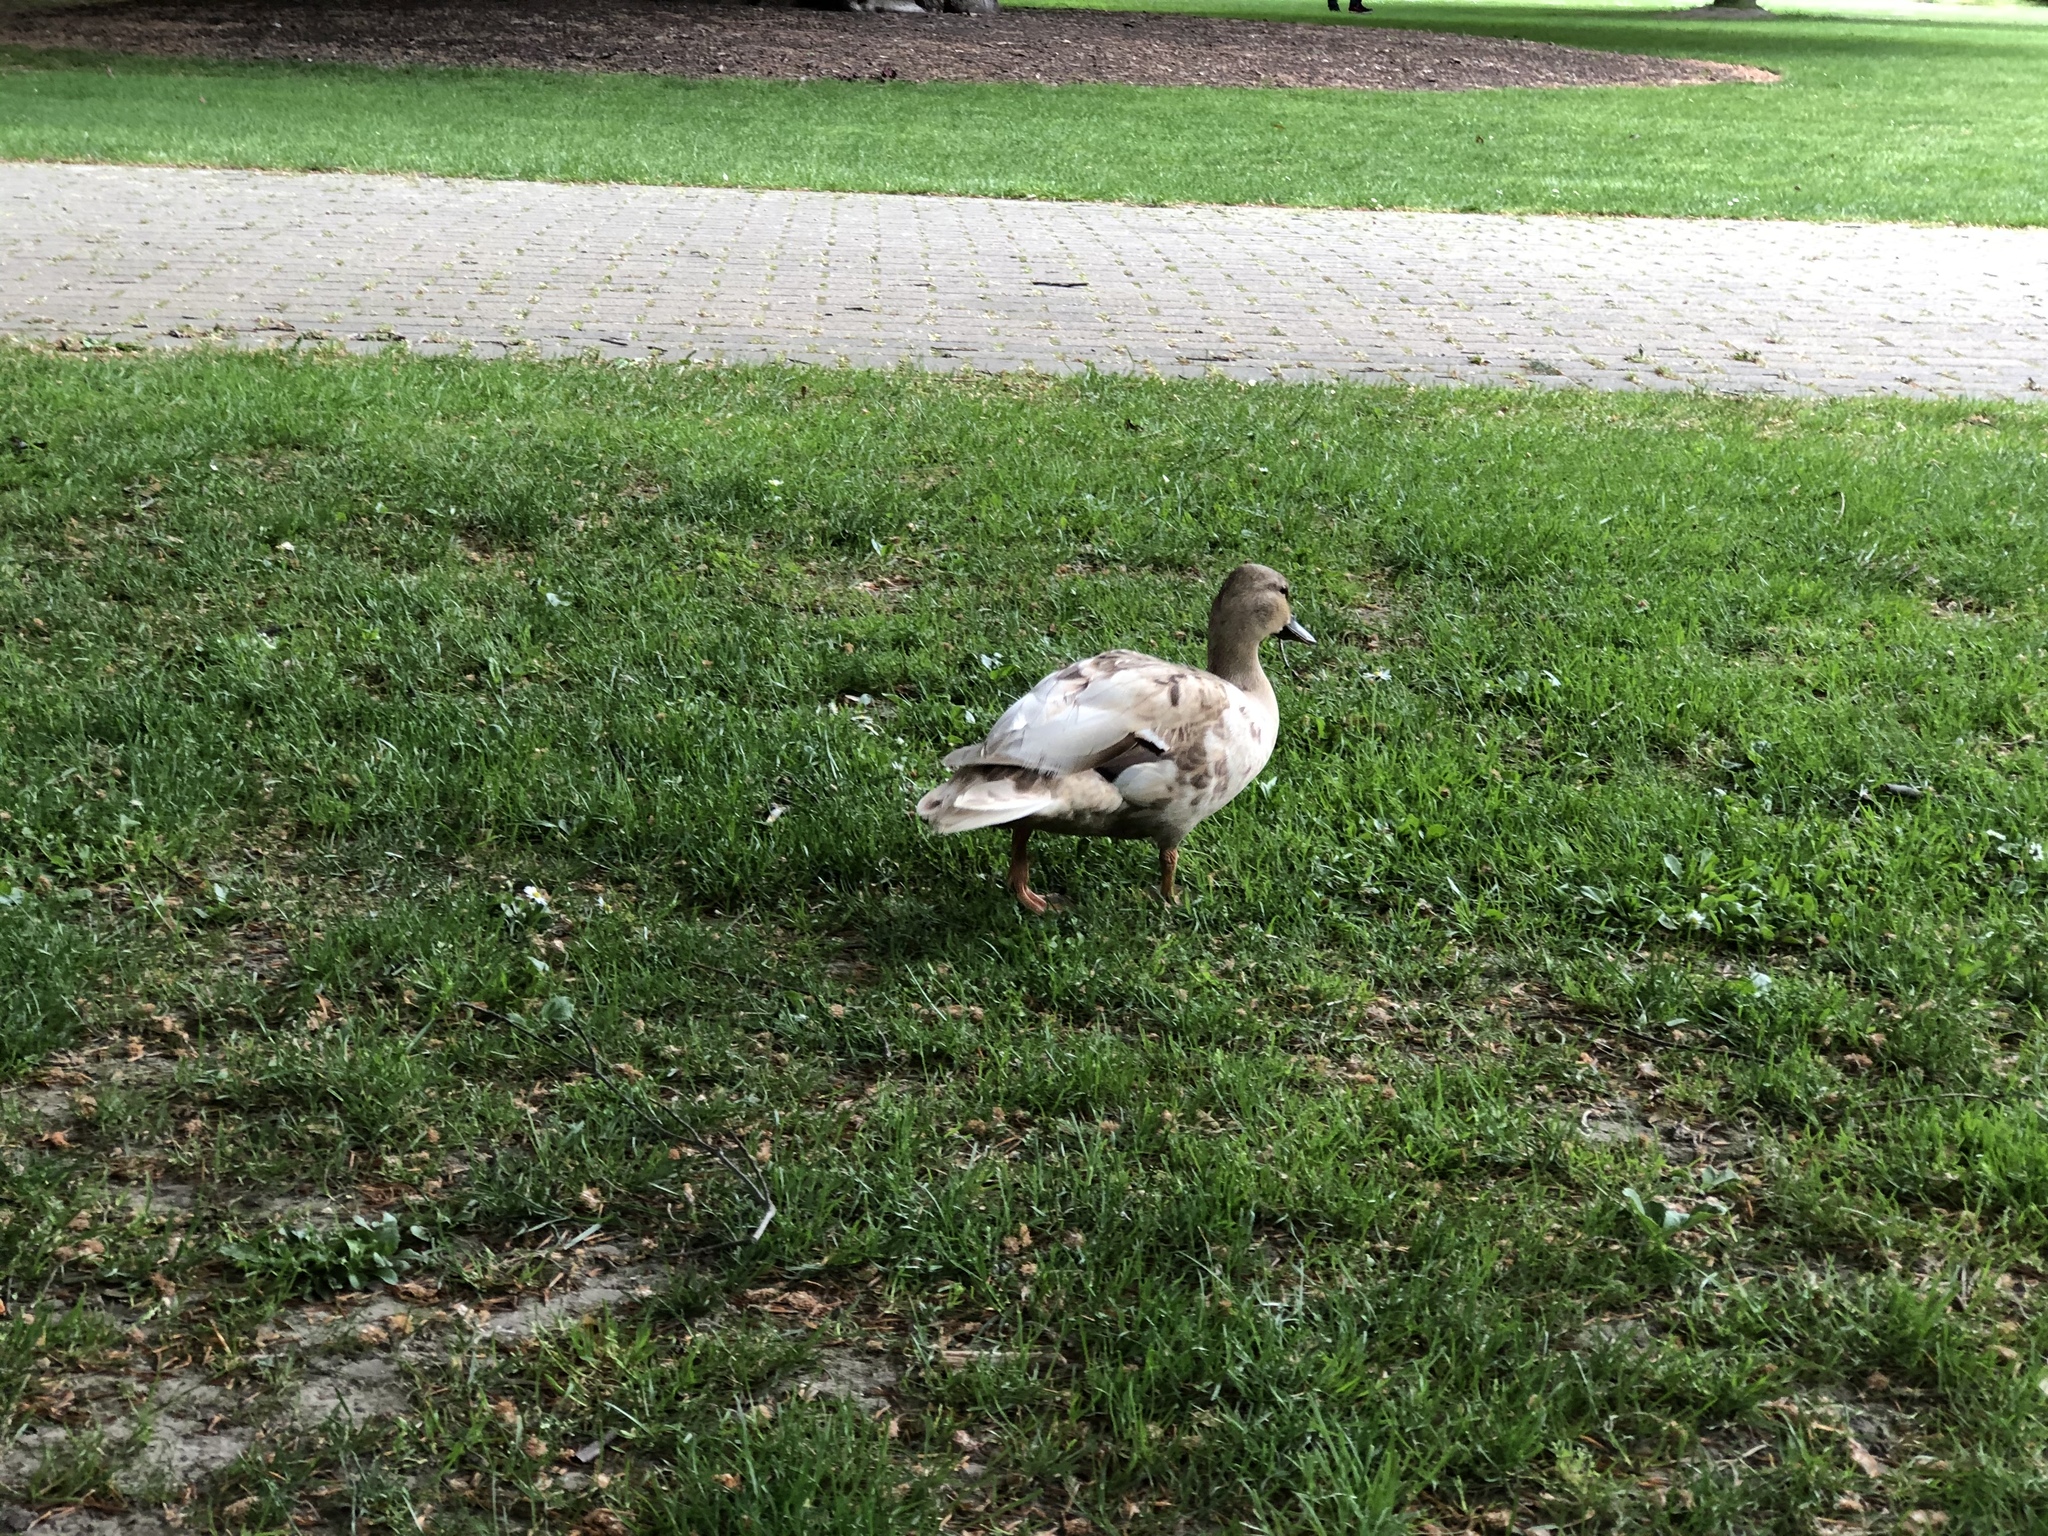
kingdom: Animalia
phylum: Chordata
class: Aves
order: Anseriformes
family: Anatidae
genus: Anas
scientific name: Anas
